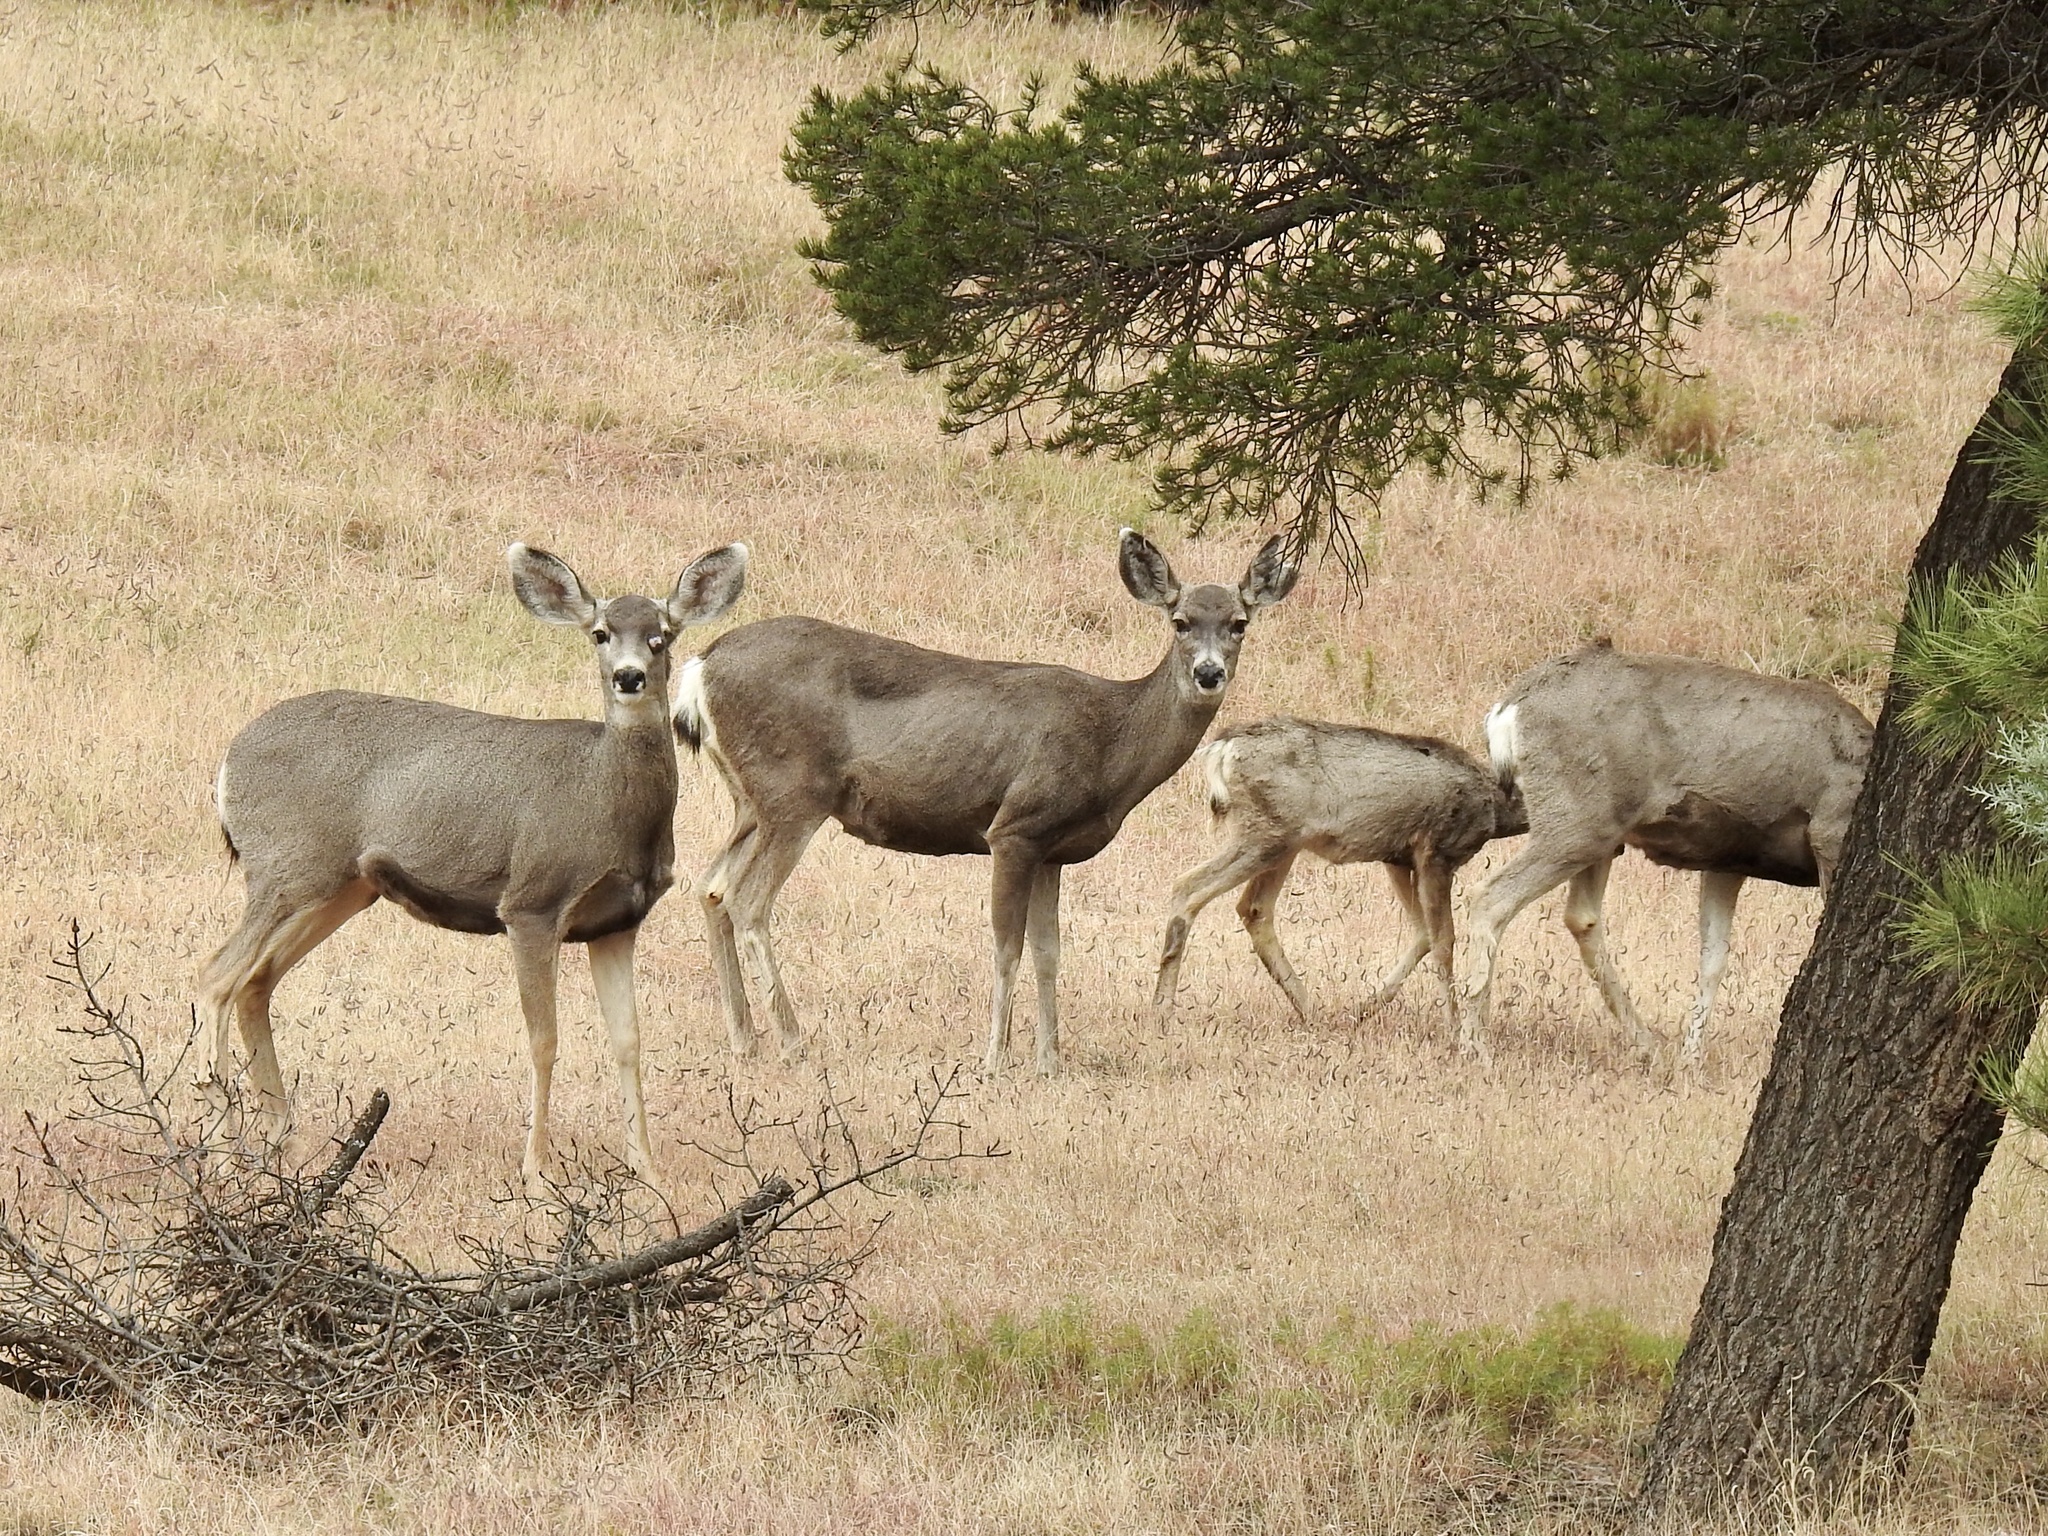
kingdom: Animalia
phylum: Chordata
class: Mammalia
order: Artiodactyla
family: Cervidae
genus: Odocoileus
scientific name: Odocoileus hemionus
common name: Mule deer
